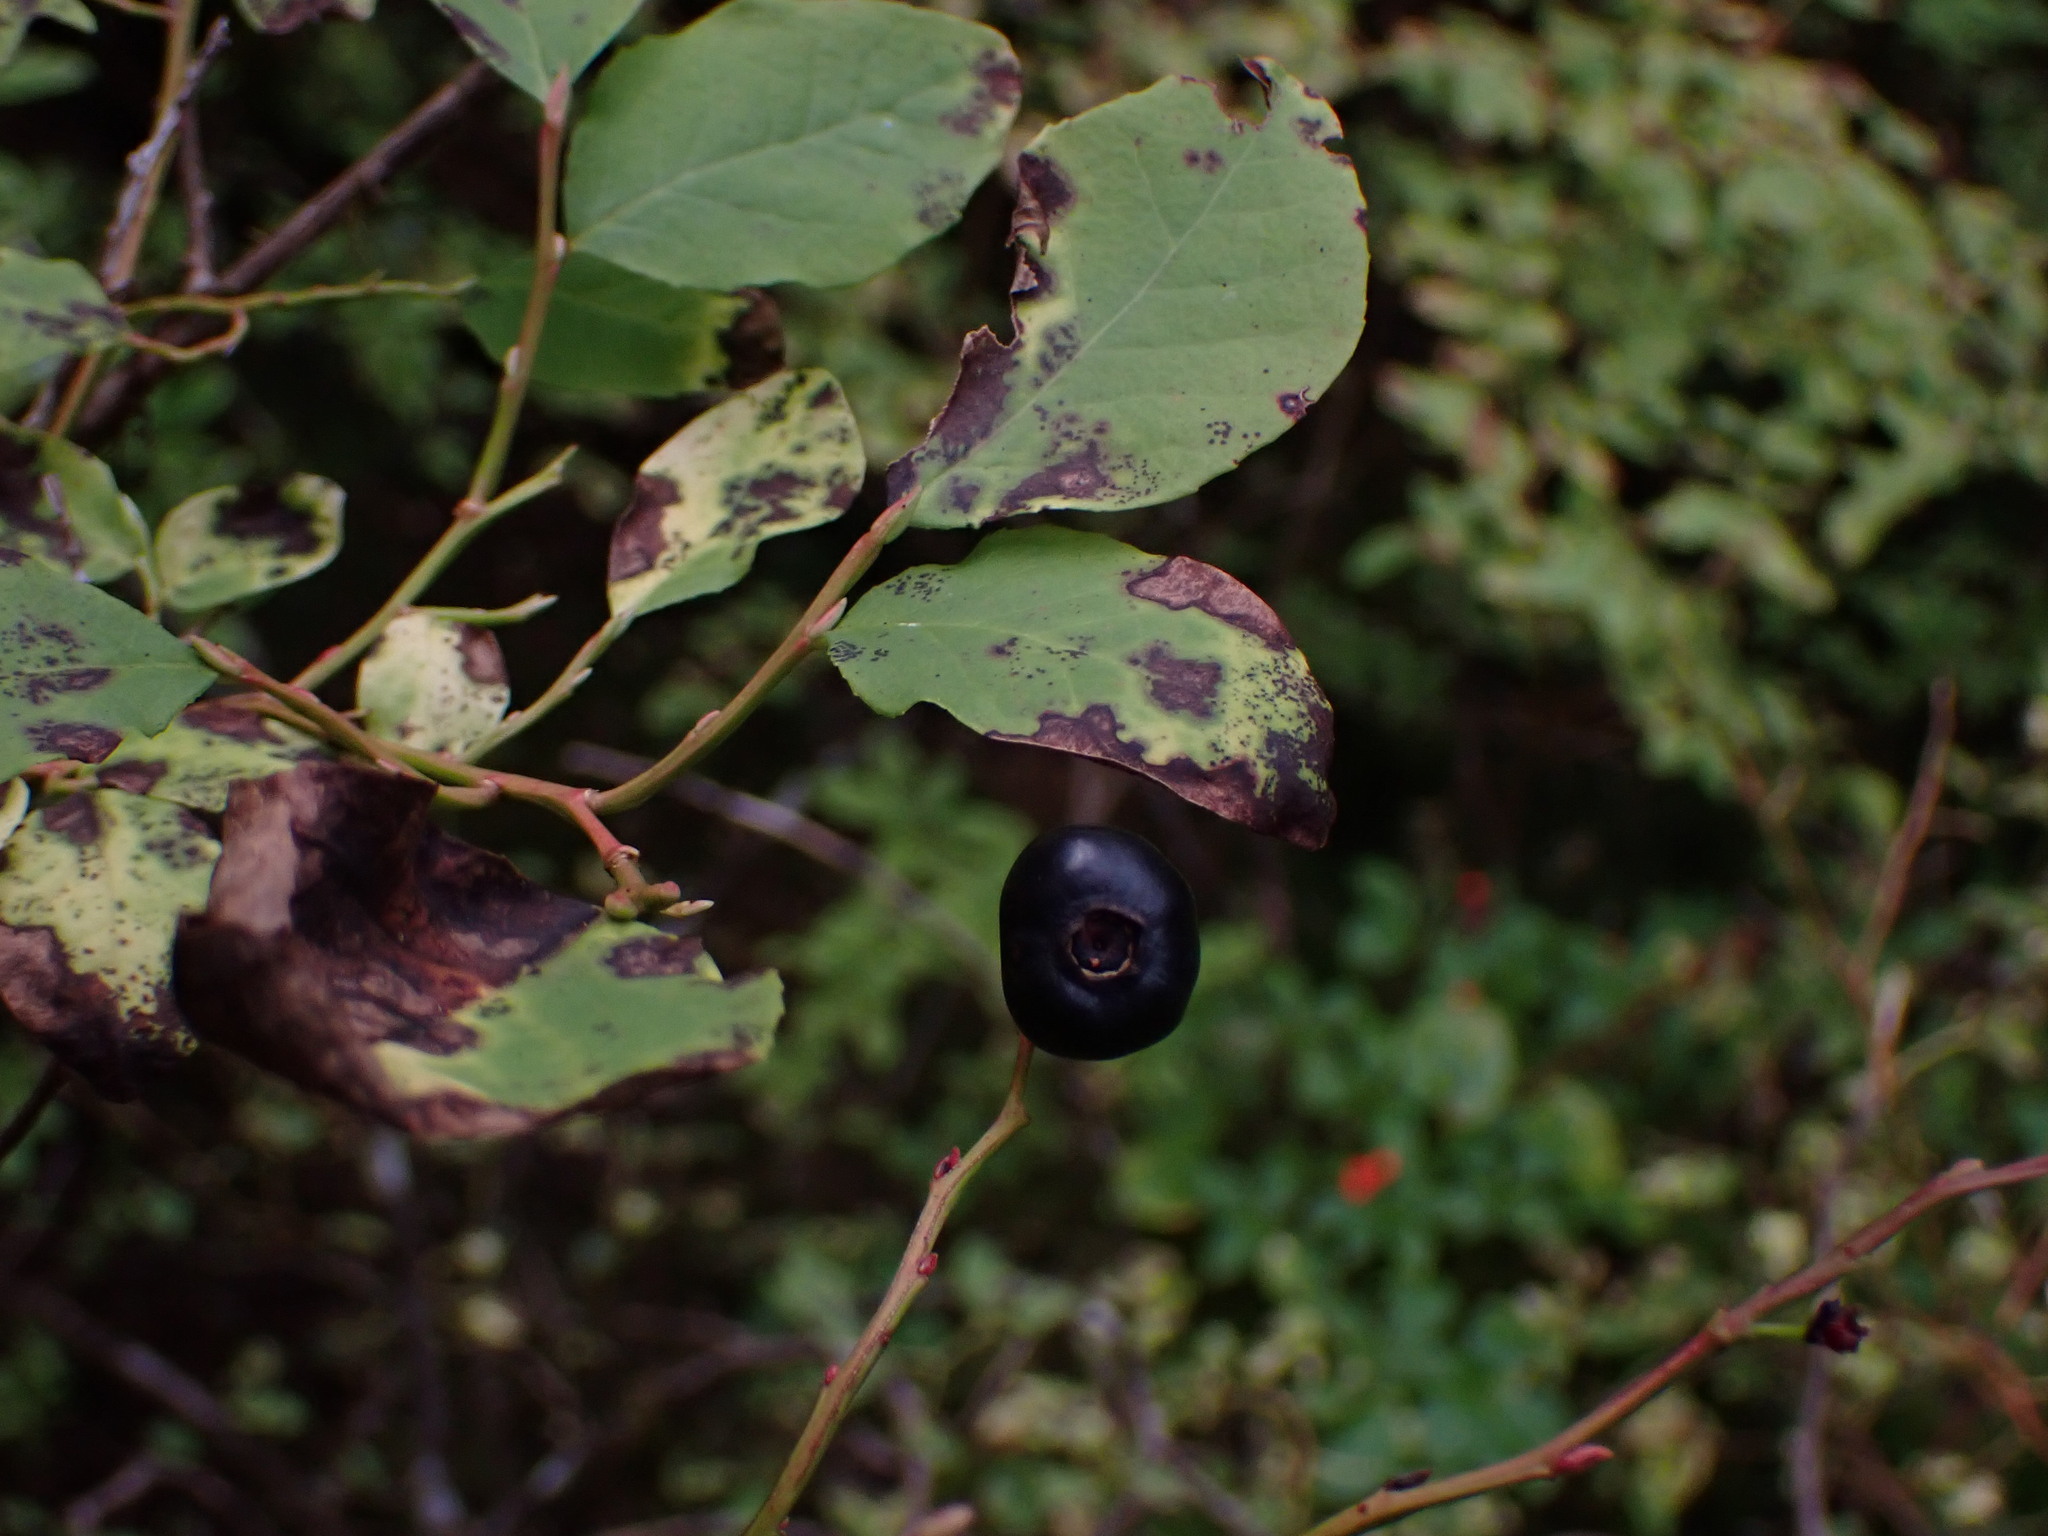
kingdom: Plantae
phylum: Tracheophyta
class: Magnoliopsida
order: Ericales
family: Ericaceae
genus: Vaccinium
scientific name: Vaccinium membranaceum
